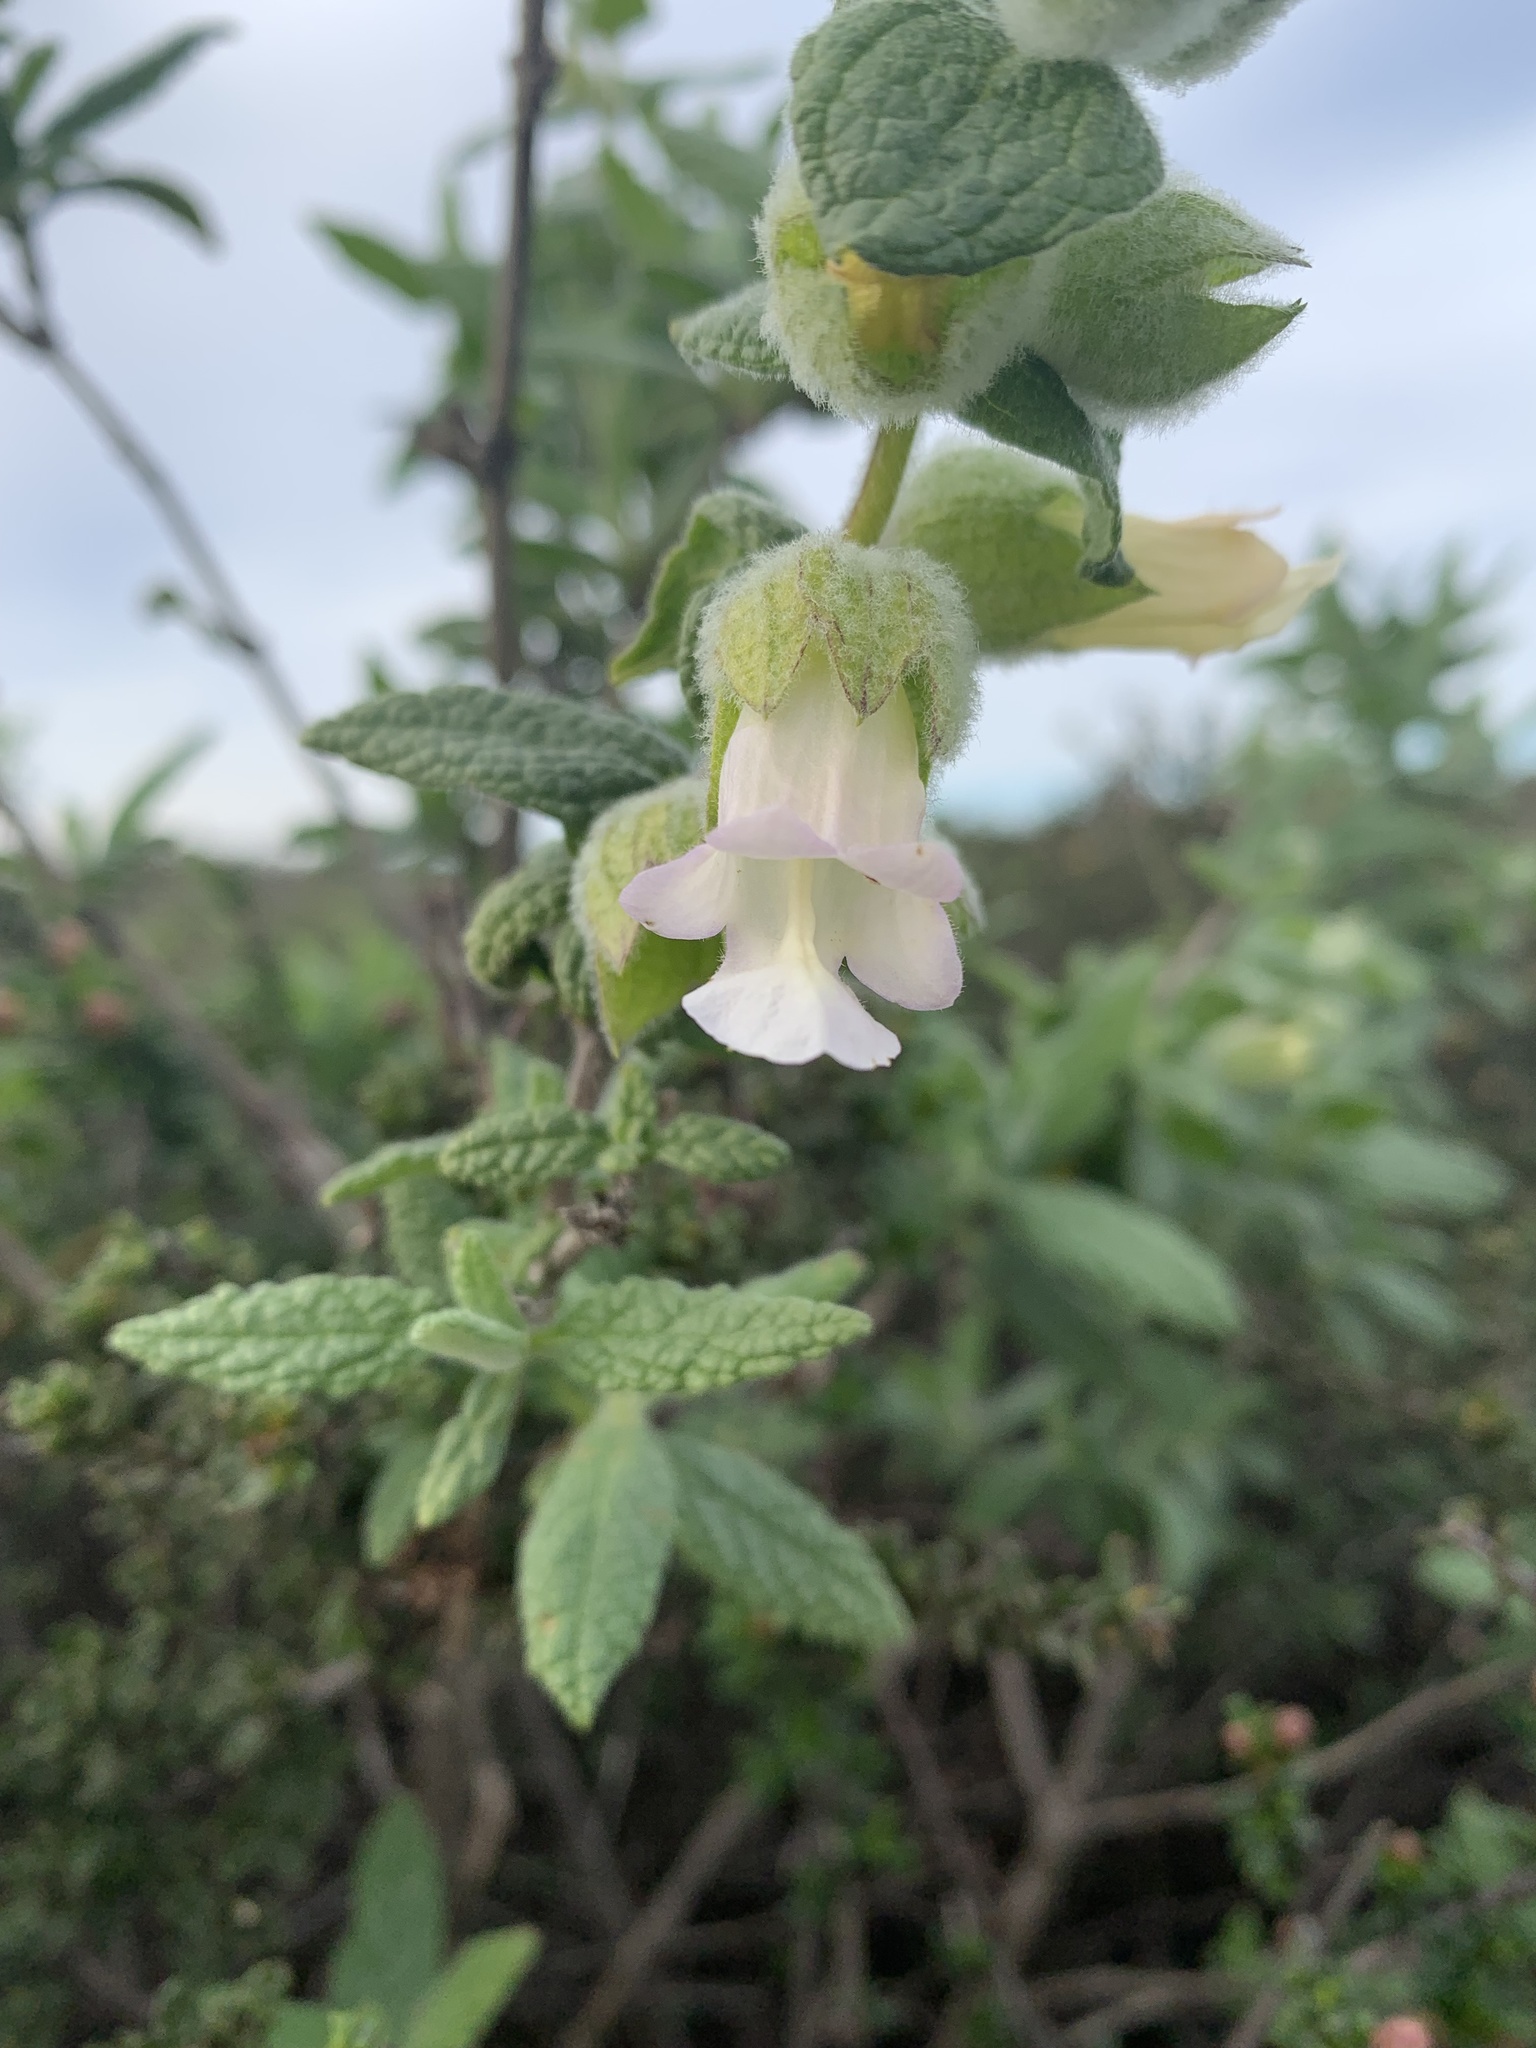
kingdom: Plantae
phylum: Tracheophyta
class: Magnoliopsida
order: Lamiales
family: Lamiaceae
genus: Lepechinia
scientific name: Lepechinia calycina
